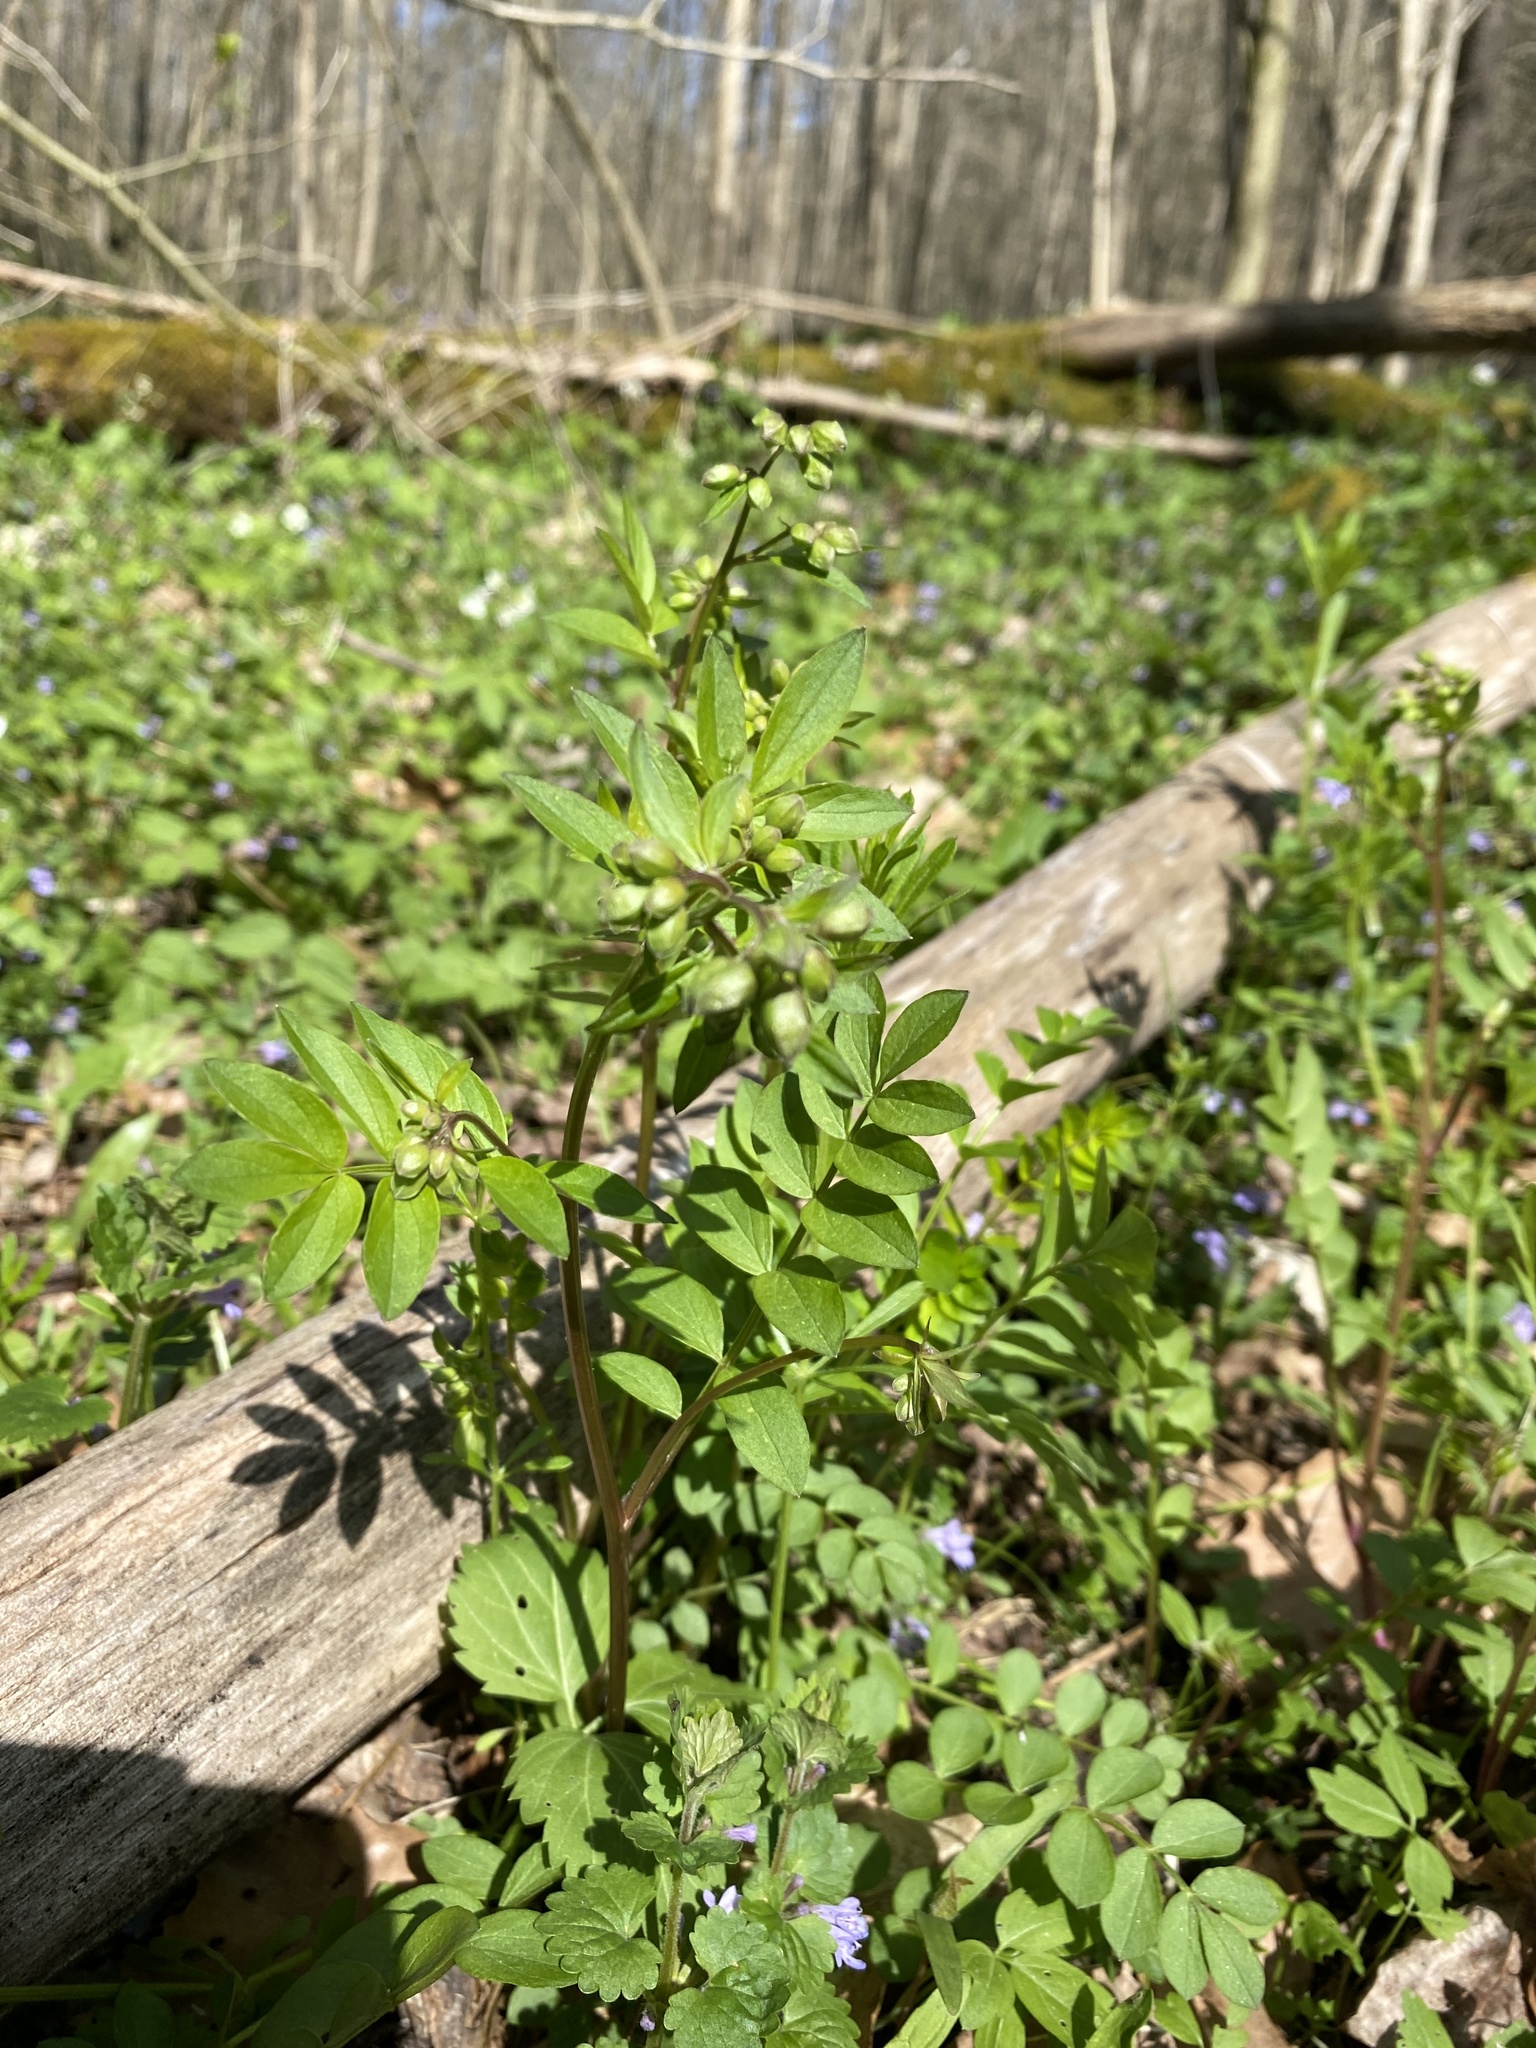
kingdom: Plantae
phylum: Tracheophyta
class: Magnoliopsida
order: Ericales
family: Polemoniaceae
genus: Polemonium
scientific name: Polemonium reptans
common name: Creeping jacob's-ladder
